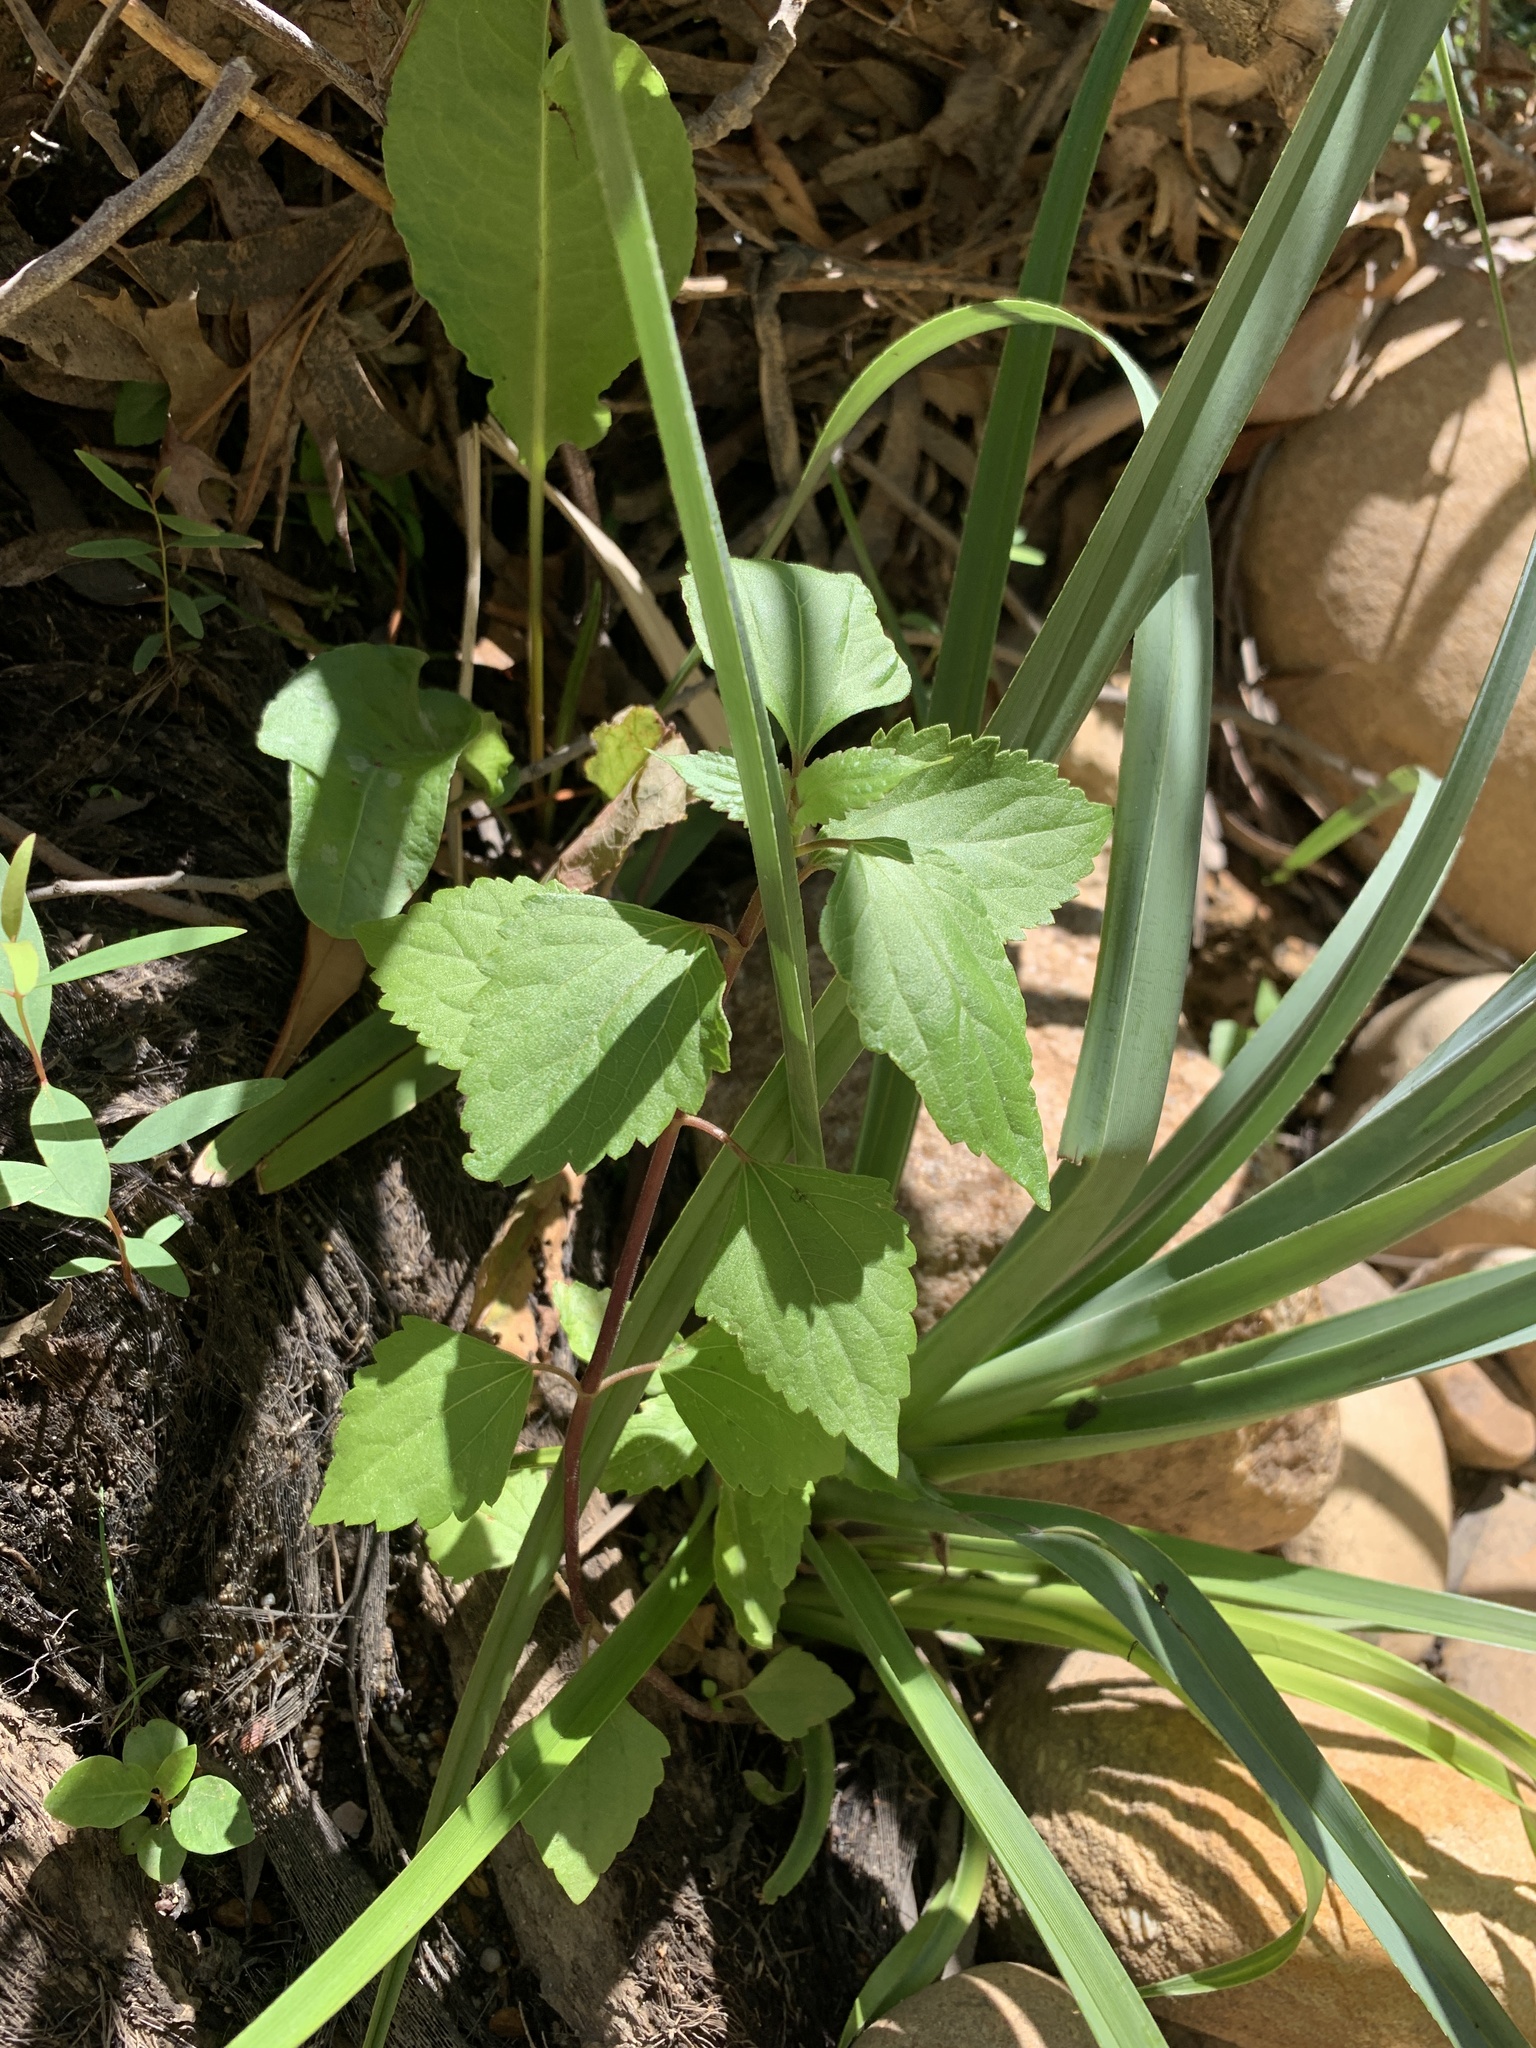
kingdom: Plantae
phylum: Tracheophyta
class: Magnoliopsida
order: Asterales
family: Asteraceae
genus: Ageratina
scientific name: Ageratina adenophora
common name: Sticky snakeroot
